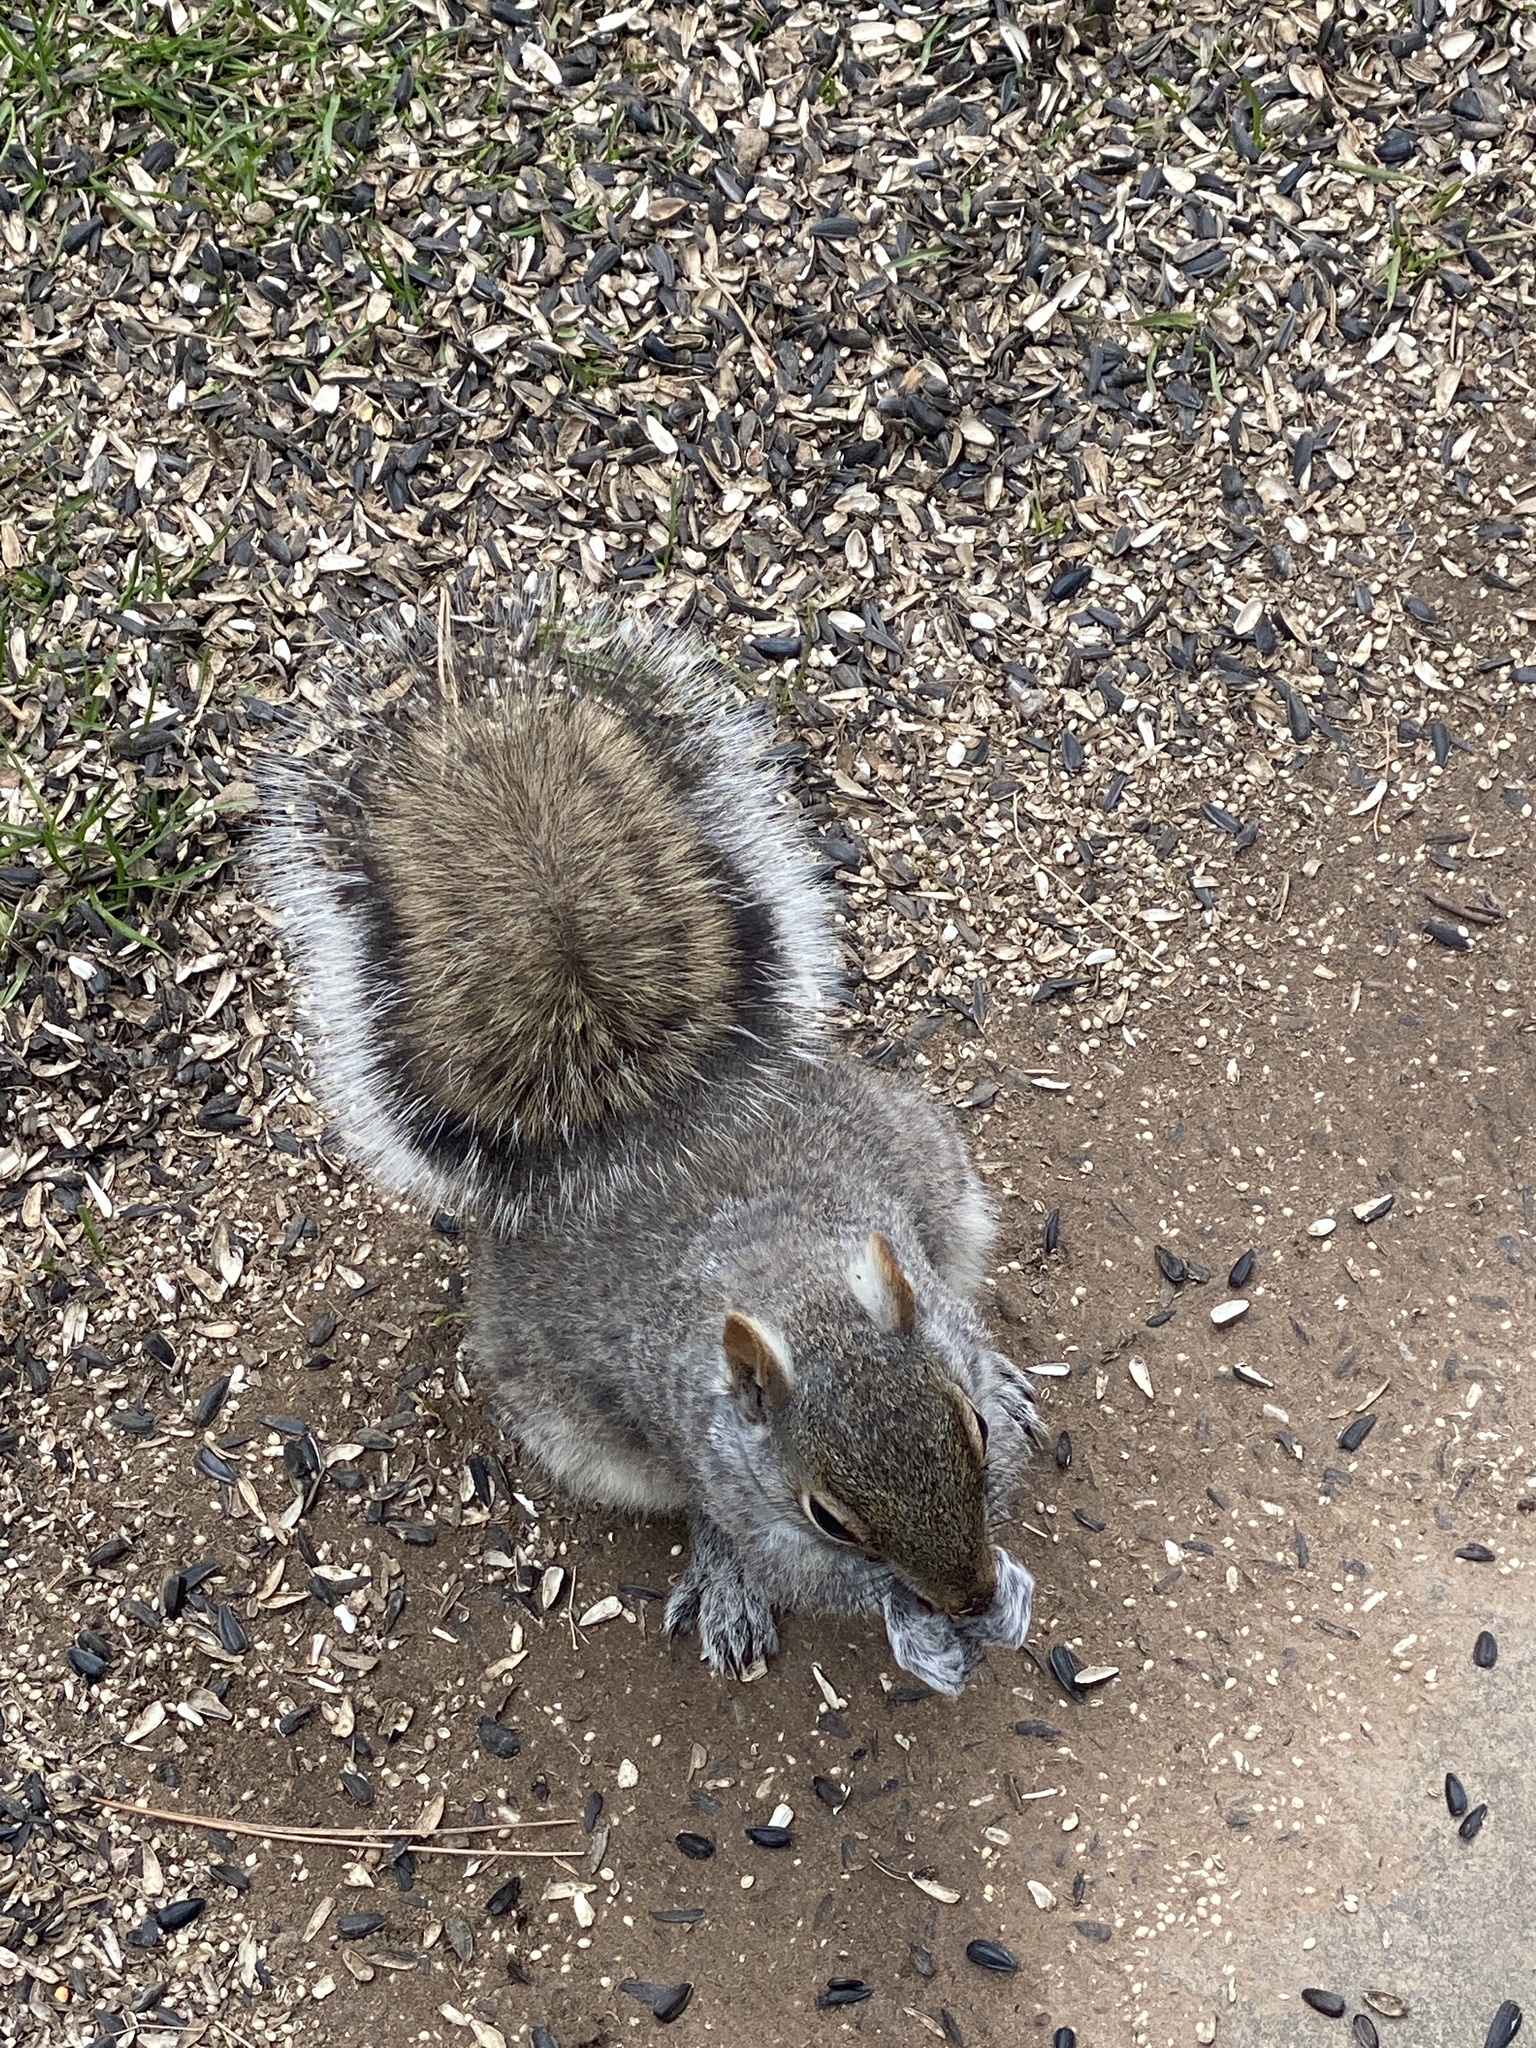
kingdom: Animalia
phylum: Chordata
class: Mammalia
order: Rodentia
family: Sciuridae
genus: Sciurus
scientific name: Sciurus carolinensis
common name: Eastern gray squirrel
